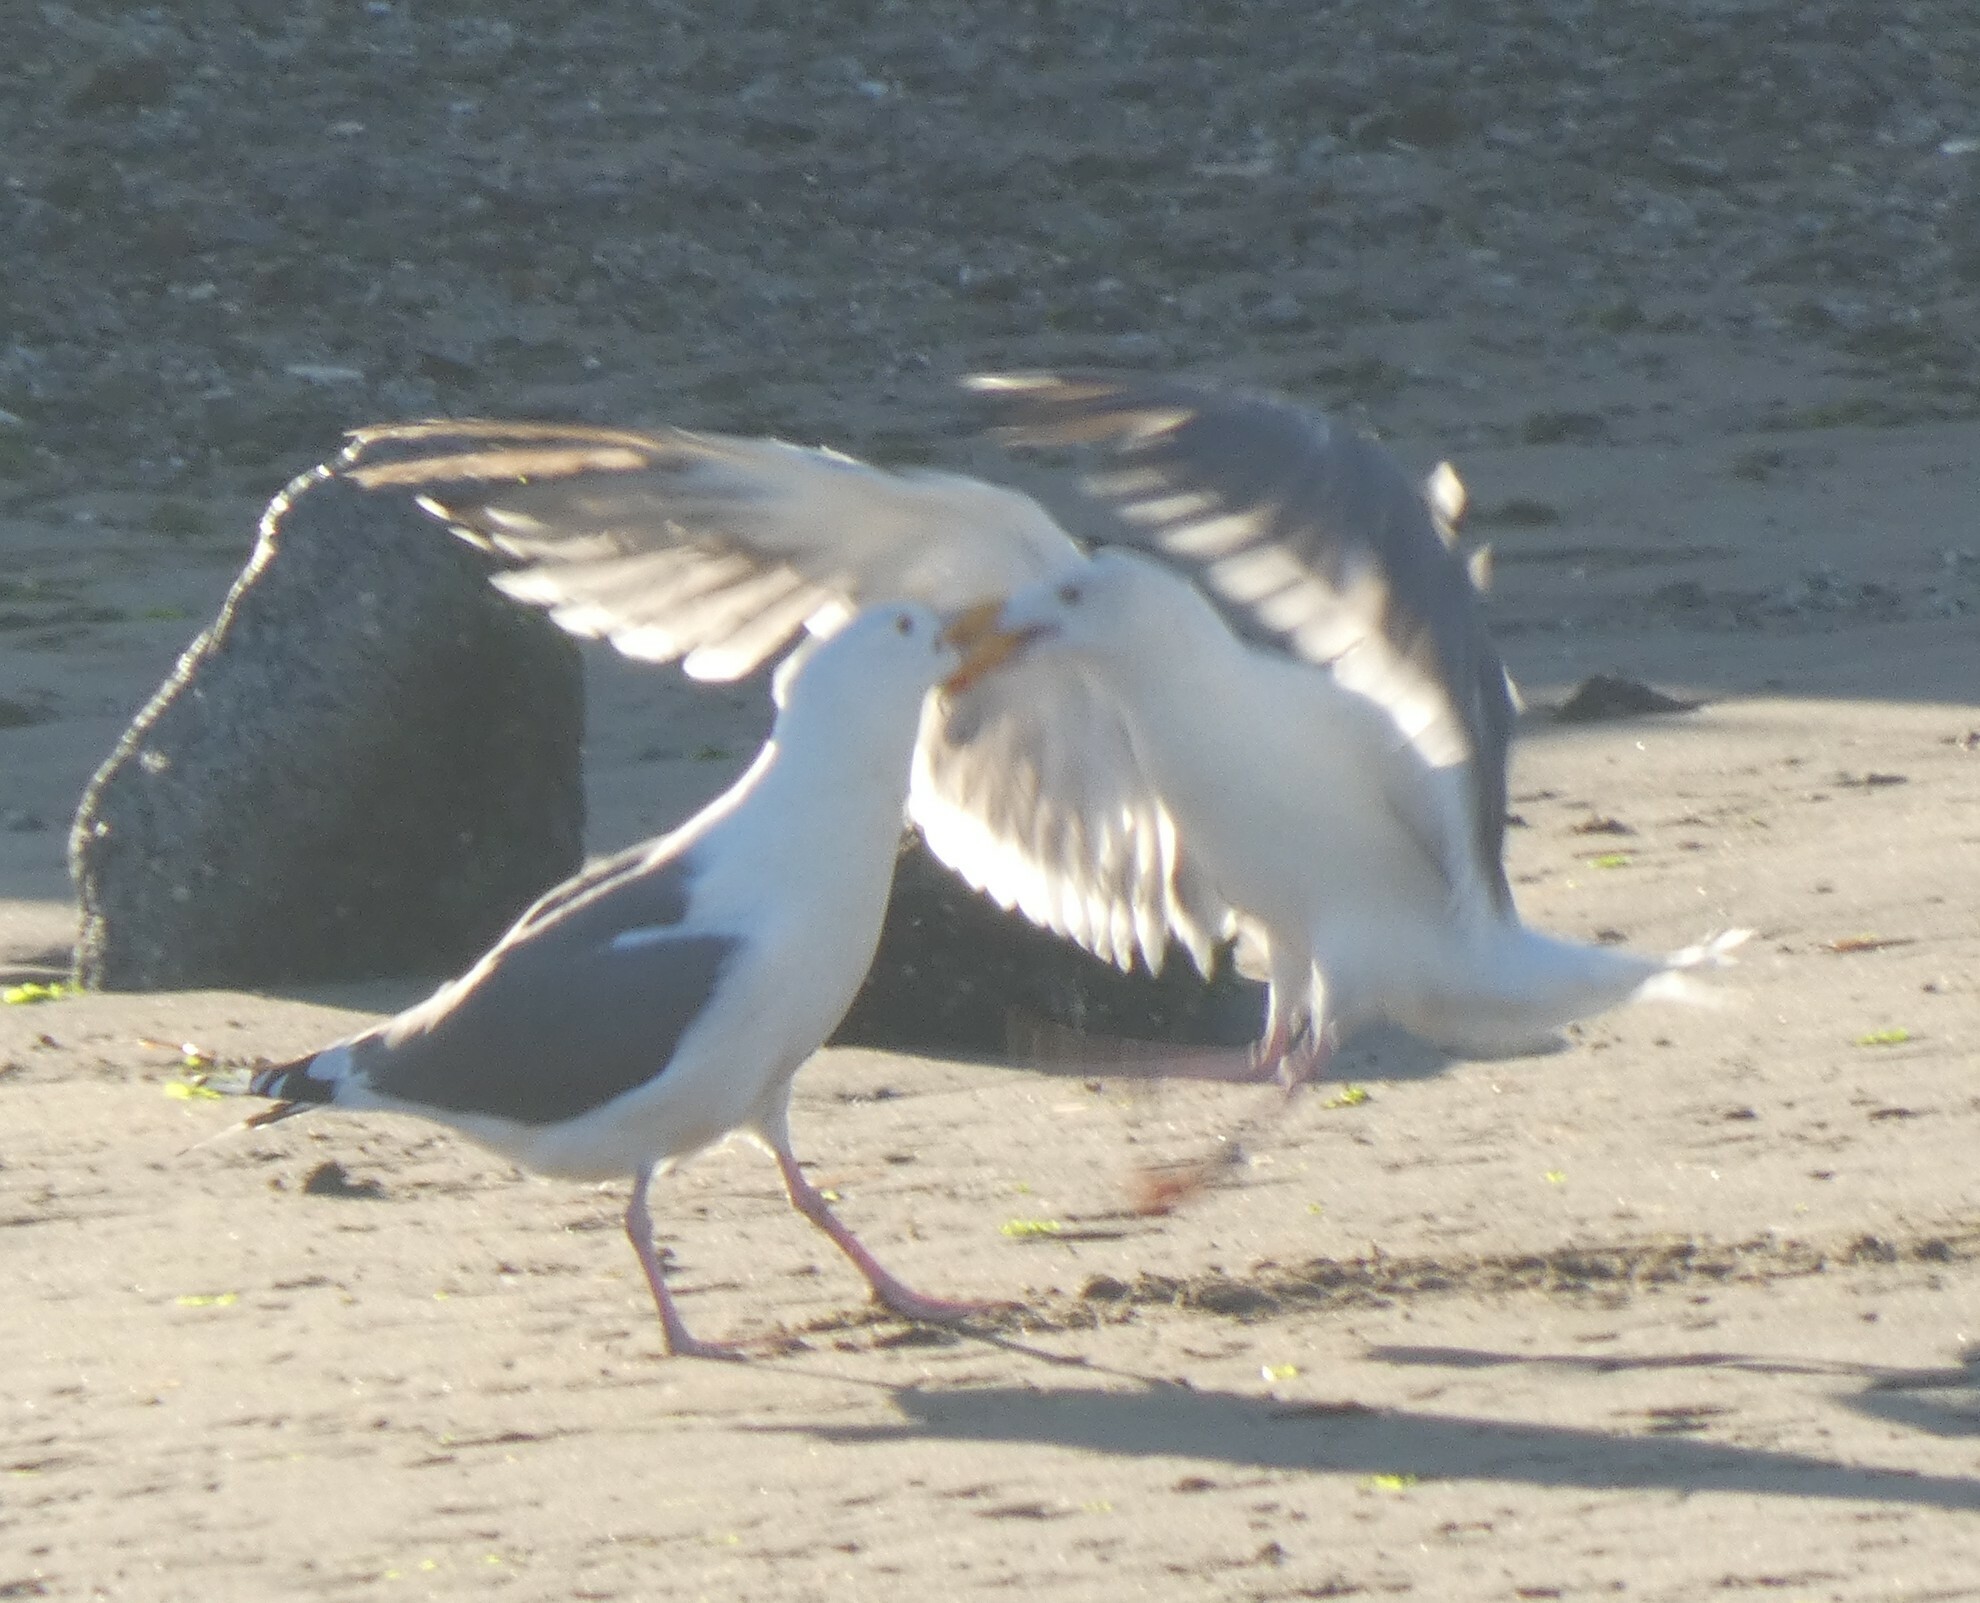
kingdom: Animalia
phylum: Chordata
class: Aves
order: Charadriiformes
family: Laridae
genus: Larus
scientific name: Larus occidentalis
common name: Western gull
